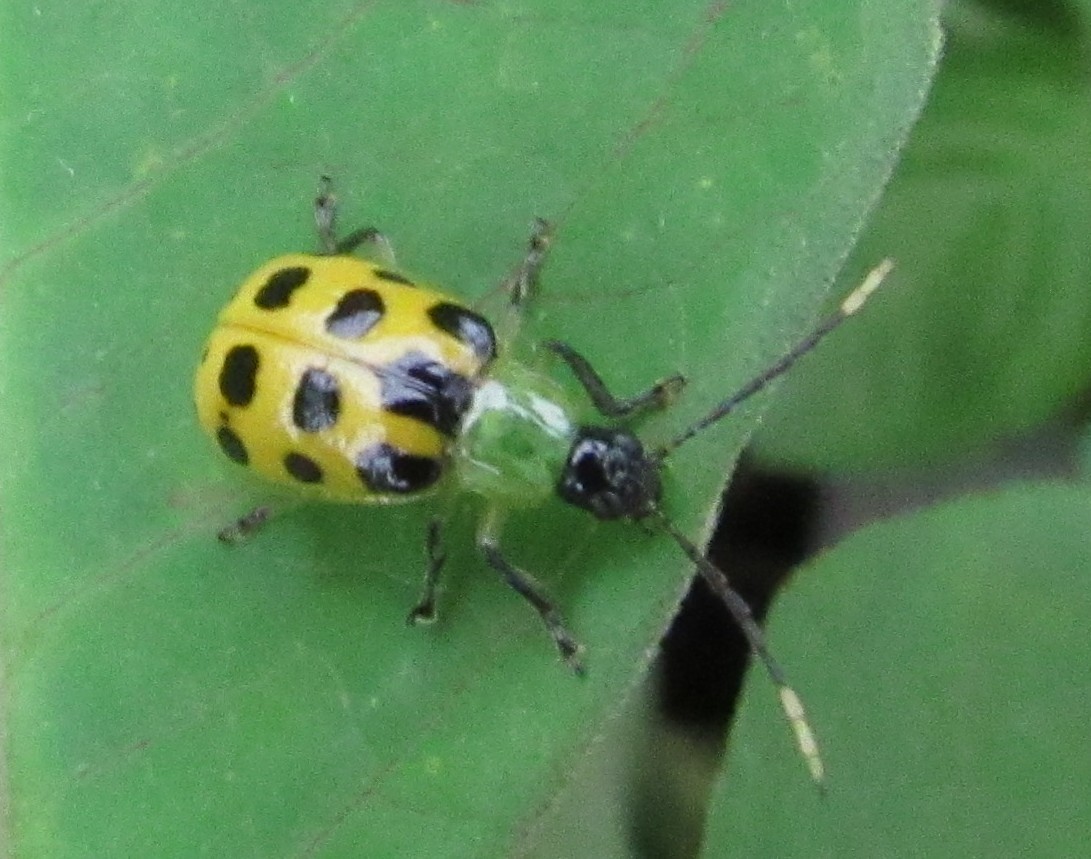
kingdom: Animalia
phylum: Arthropoda
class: Insecta
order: Coleoptera
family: Chrysomelidae
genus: Diabrotica
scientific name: Diabrotica limitata
